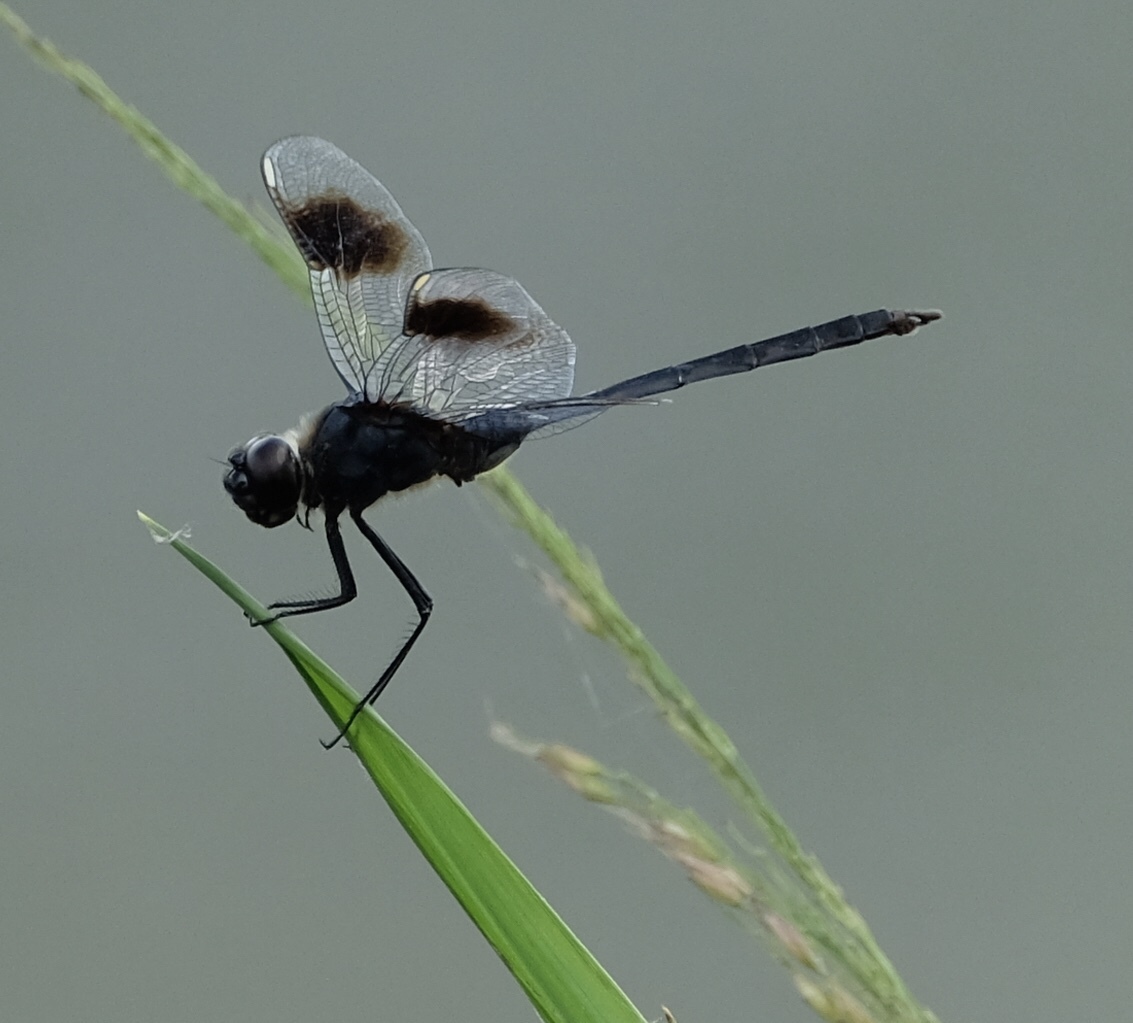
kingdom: Animalia
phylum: Arthropoda
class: Insecta
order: Odonata
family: Libellulidae
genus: Brachymesia
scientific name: Brachymesia gravida
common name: Four-spotted pennant
